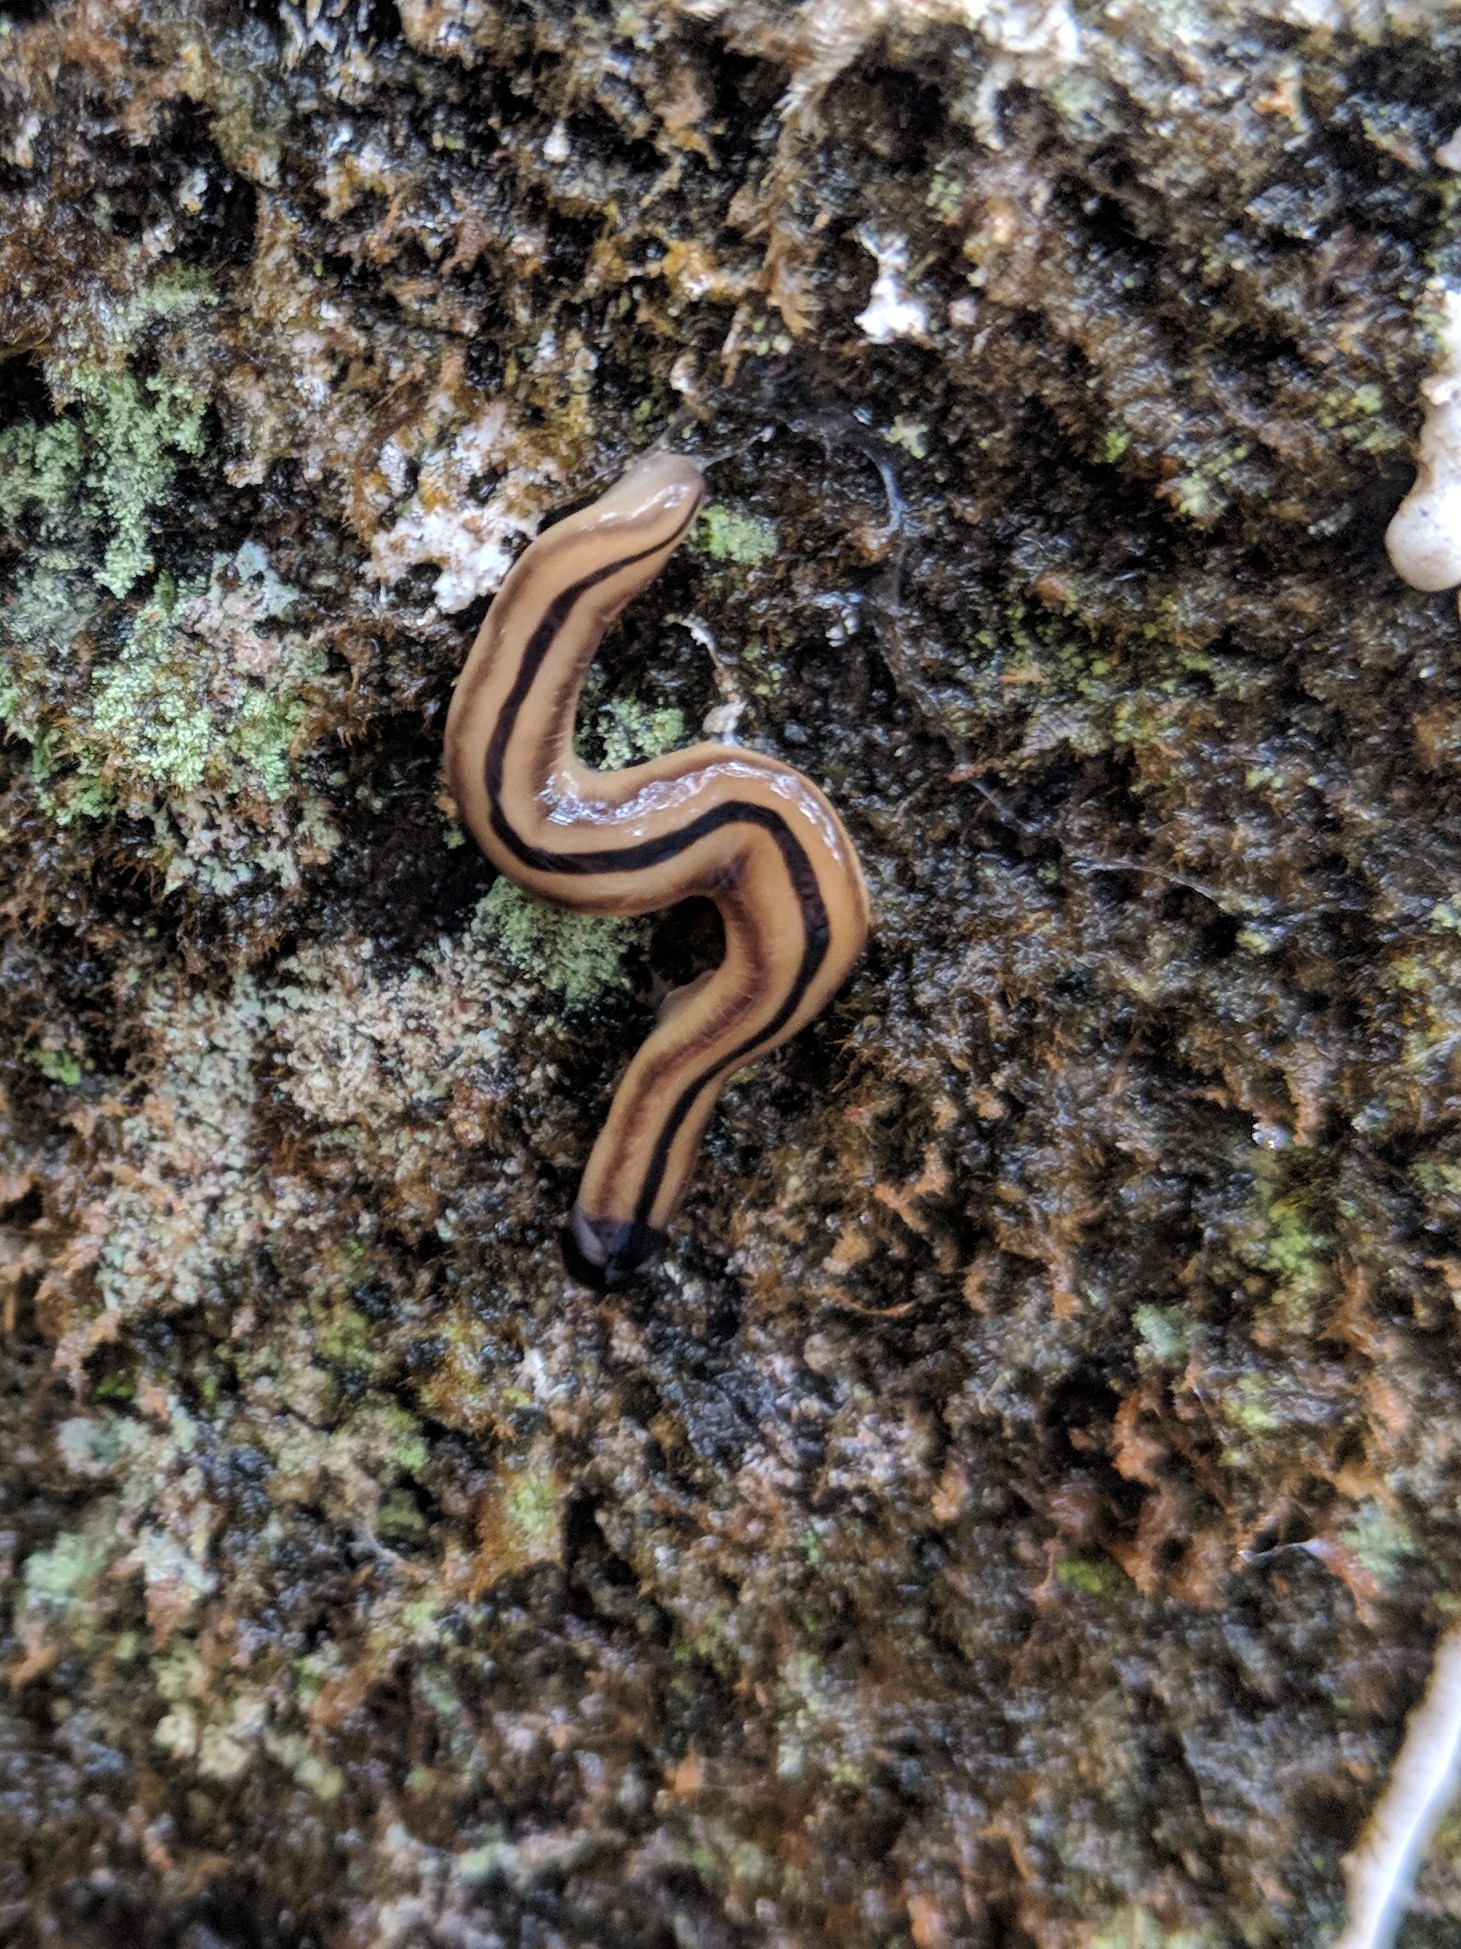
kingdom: Animalia
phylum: Platyhelminthes
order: Tricladida
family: Geoplanidae
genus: Bipalium
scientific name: Bipalium vagum
